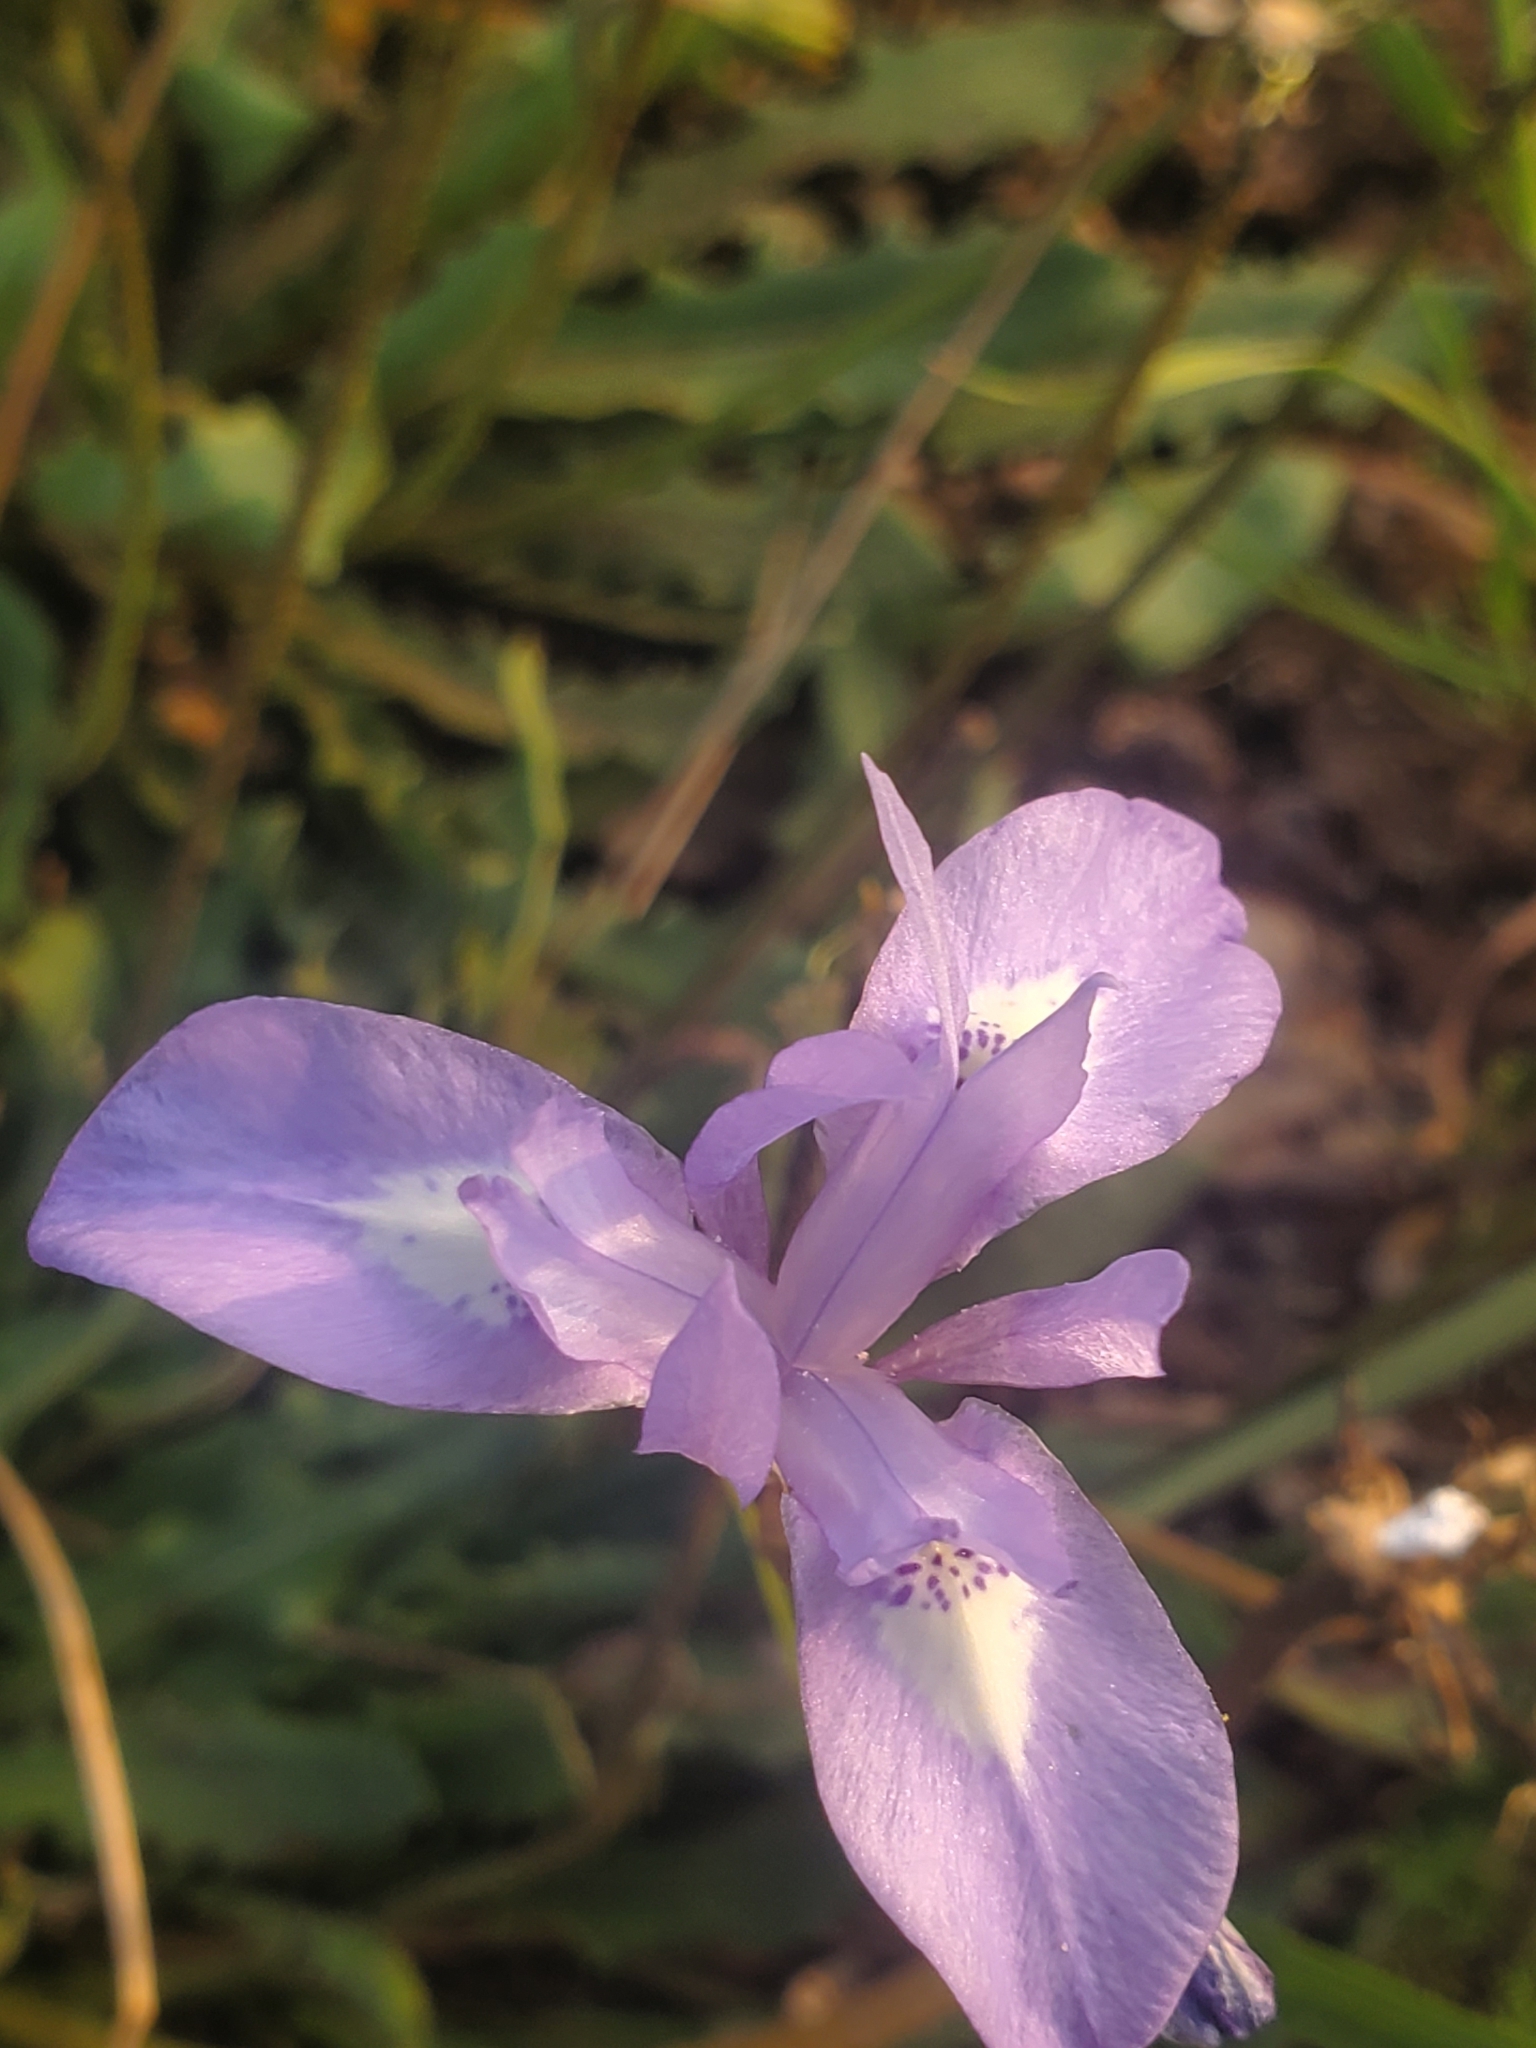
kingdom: Plantae
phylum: Tracheophyta
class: Liliopsida
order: Asparagales
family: Iridaceae
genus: Moraea
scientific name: Moraea sisyrinchium
